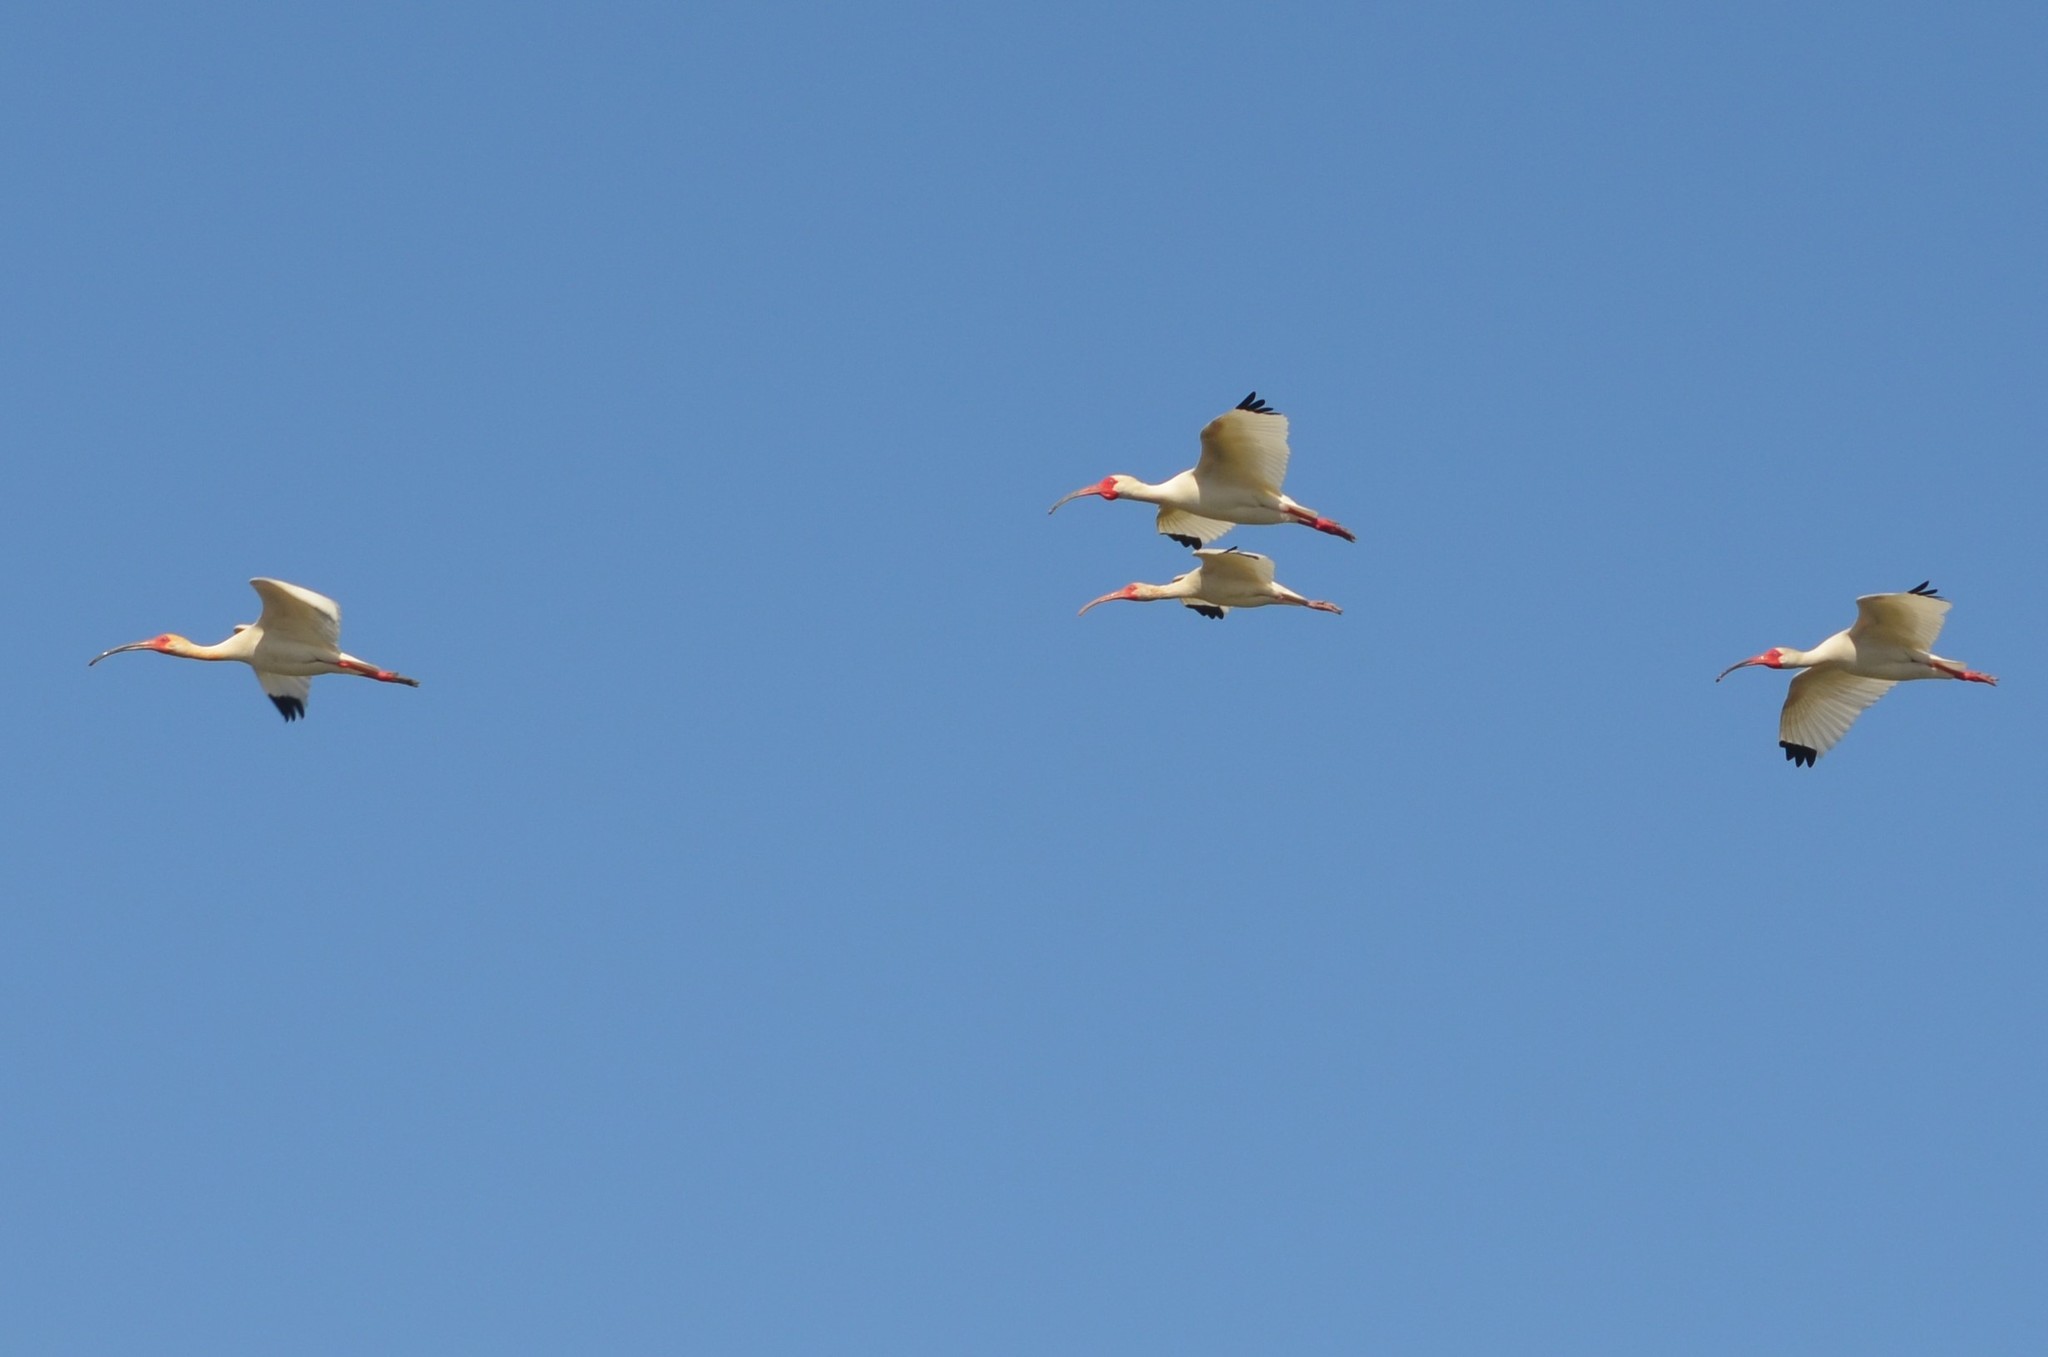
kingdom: Animalia
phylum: Chordata
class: Aves
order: Pelecaniformes
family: Threskiornithidae
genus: Eudocimus
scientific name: Eudocimus albus
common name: White ibis
